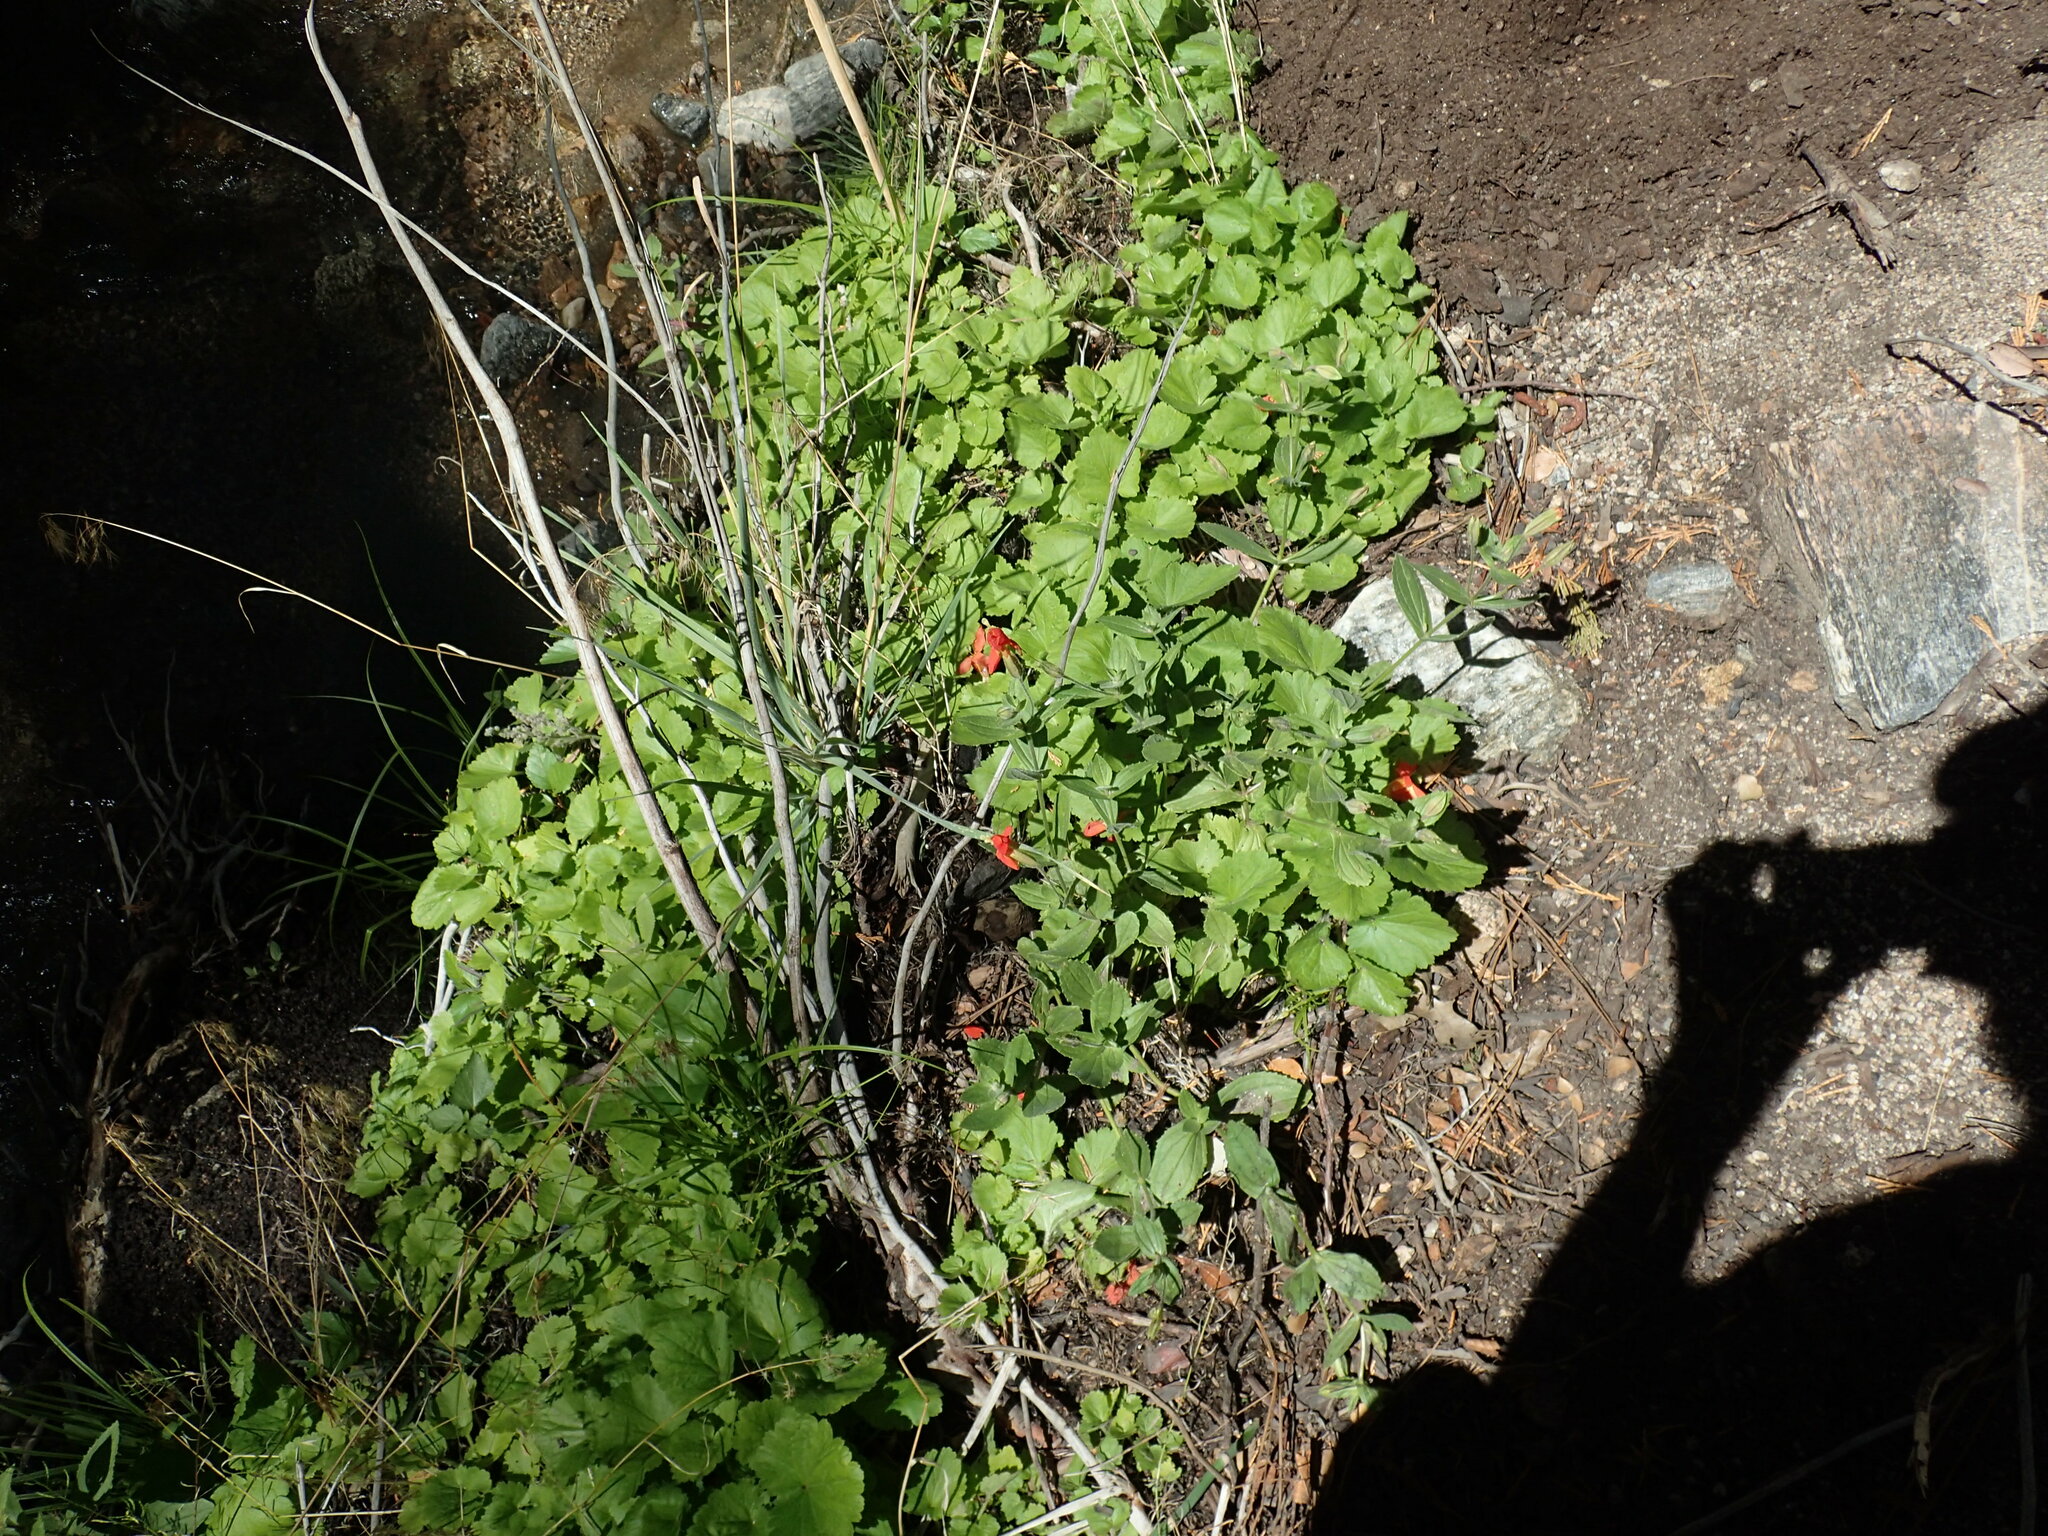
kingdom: Plantae
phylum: Tracheophyta
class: Magnoliopsida
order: Lamiales
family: Phrymaceae
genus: Erythranthe
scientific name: Erythranthe cardinalis
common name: Scarlet monkey-flower
